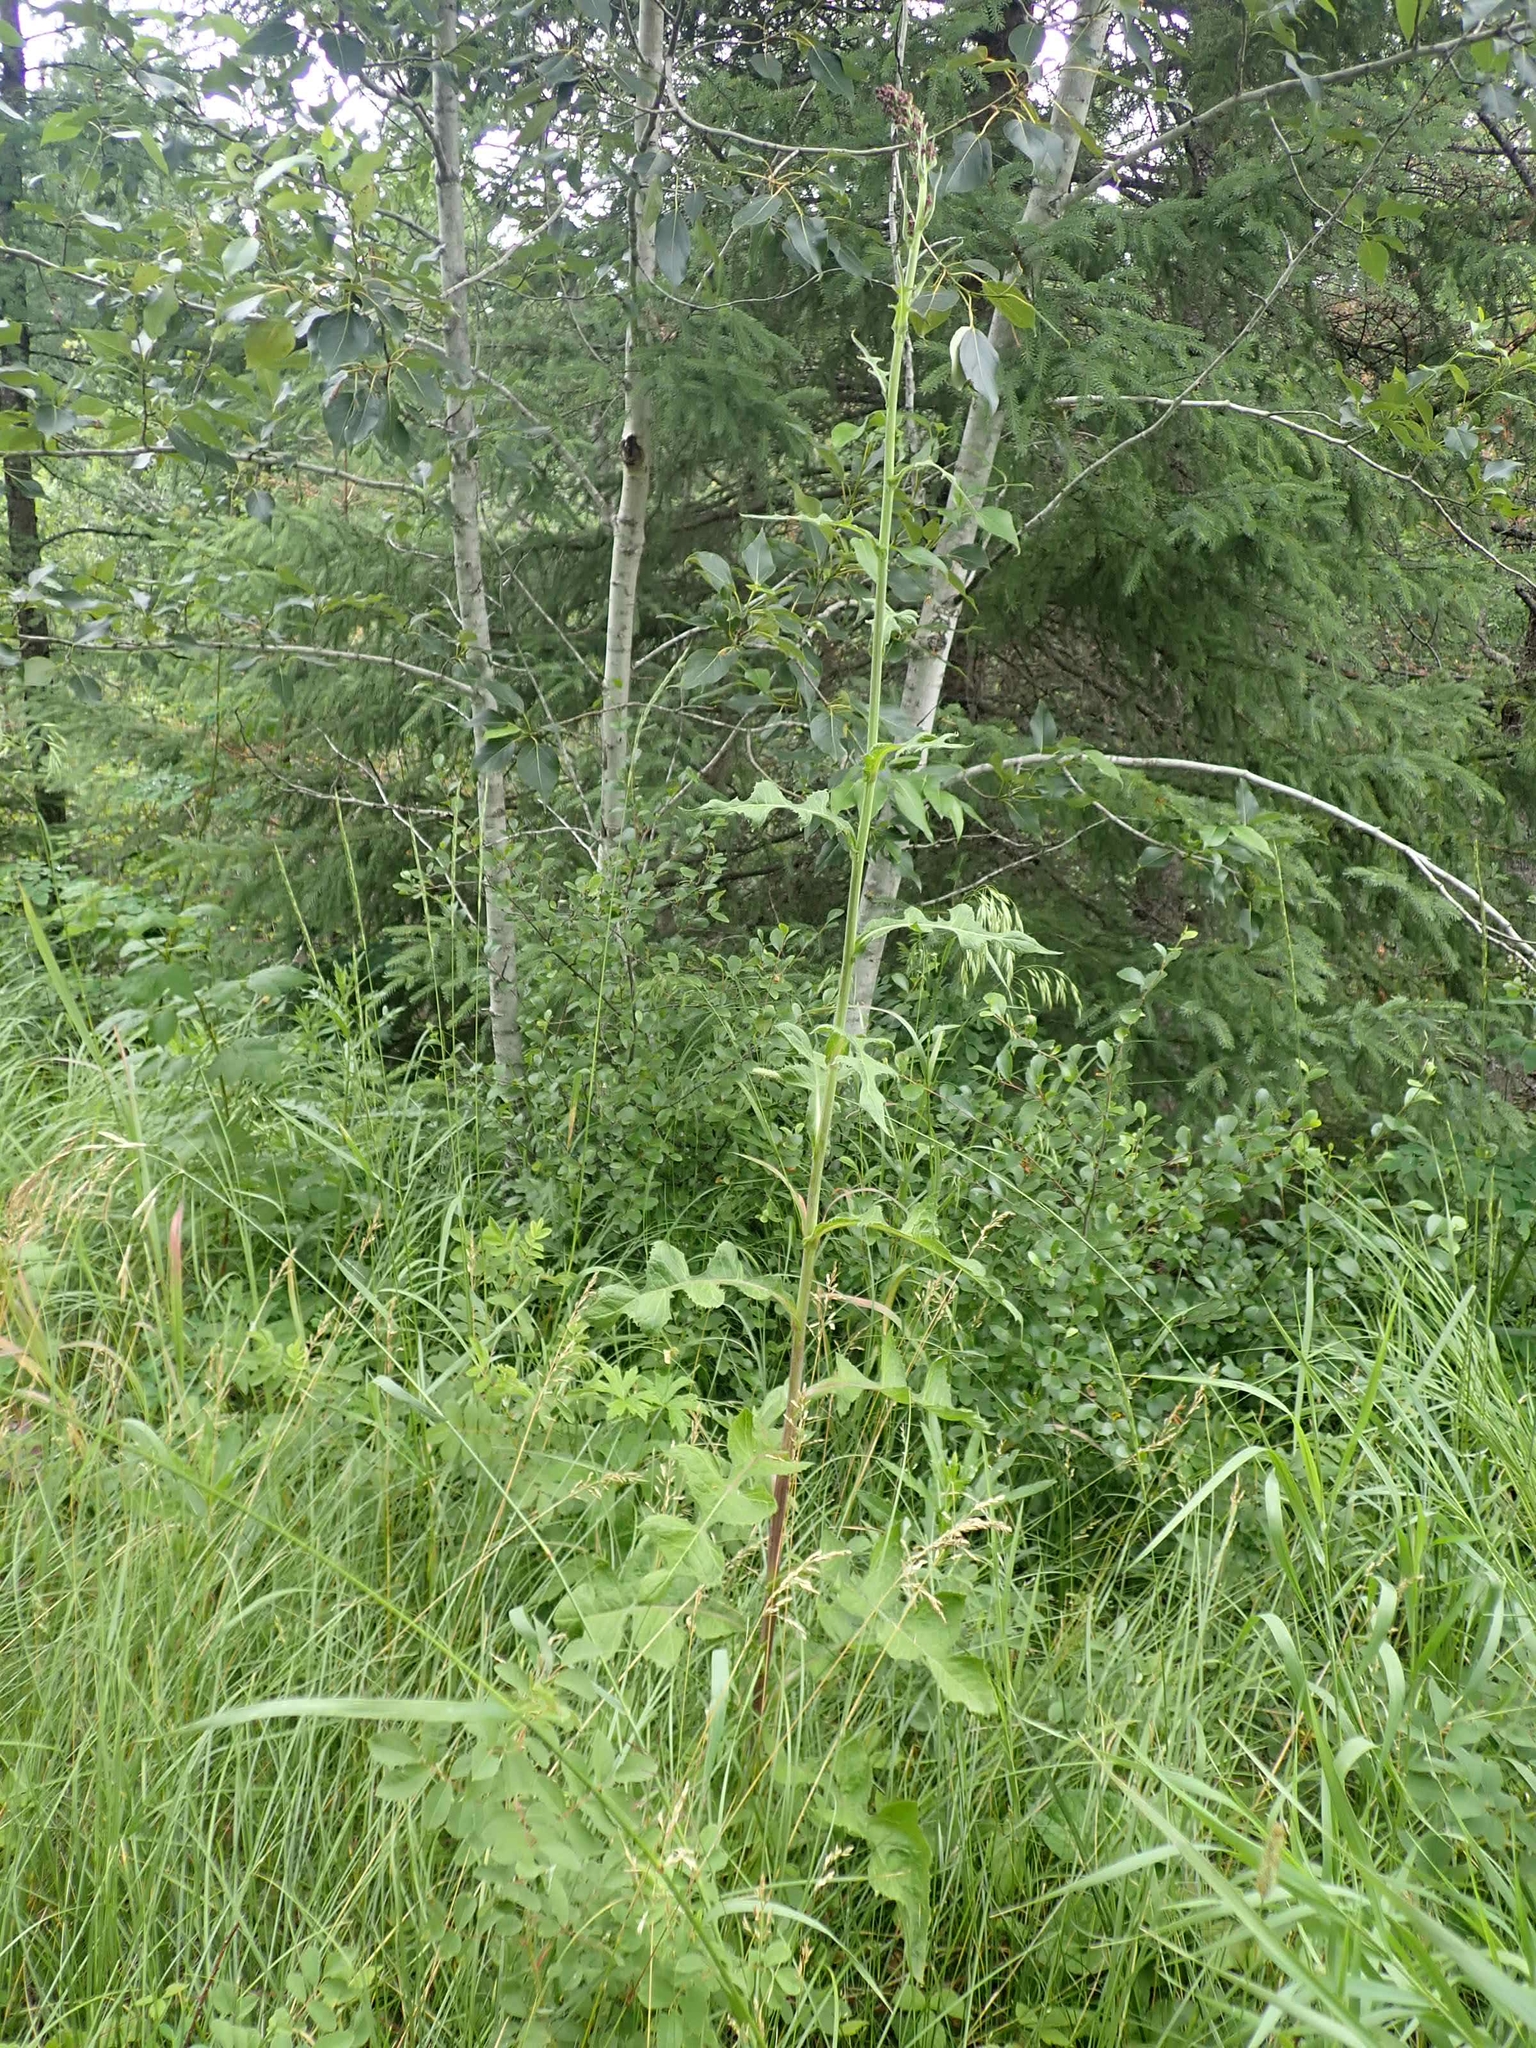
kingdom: Plantae
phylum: Tracheophyta
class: Magnoliopsida
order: Asterales
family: Asteraceae
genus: Lactuca
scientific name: Lactuca biennis
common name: Blue wood lettuce
